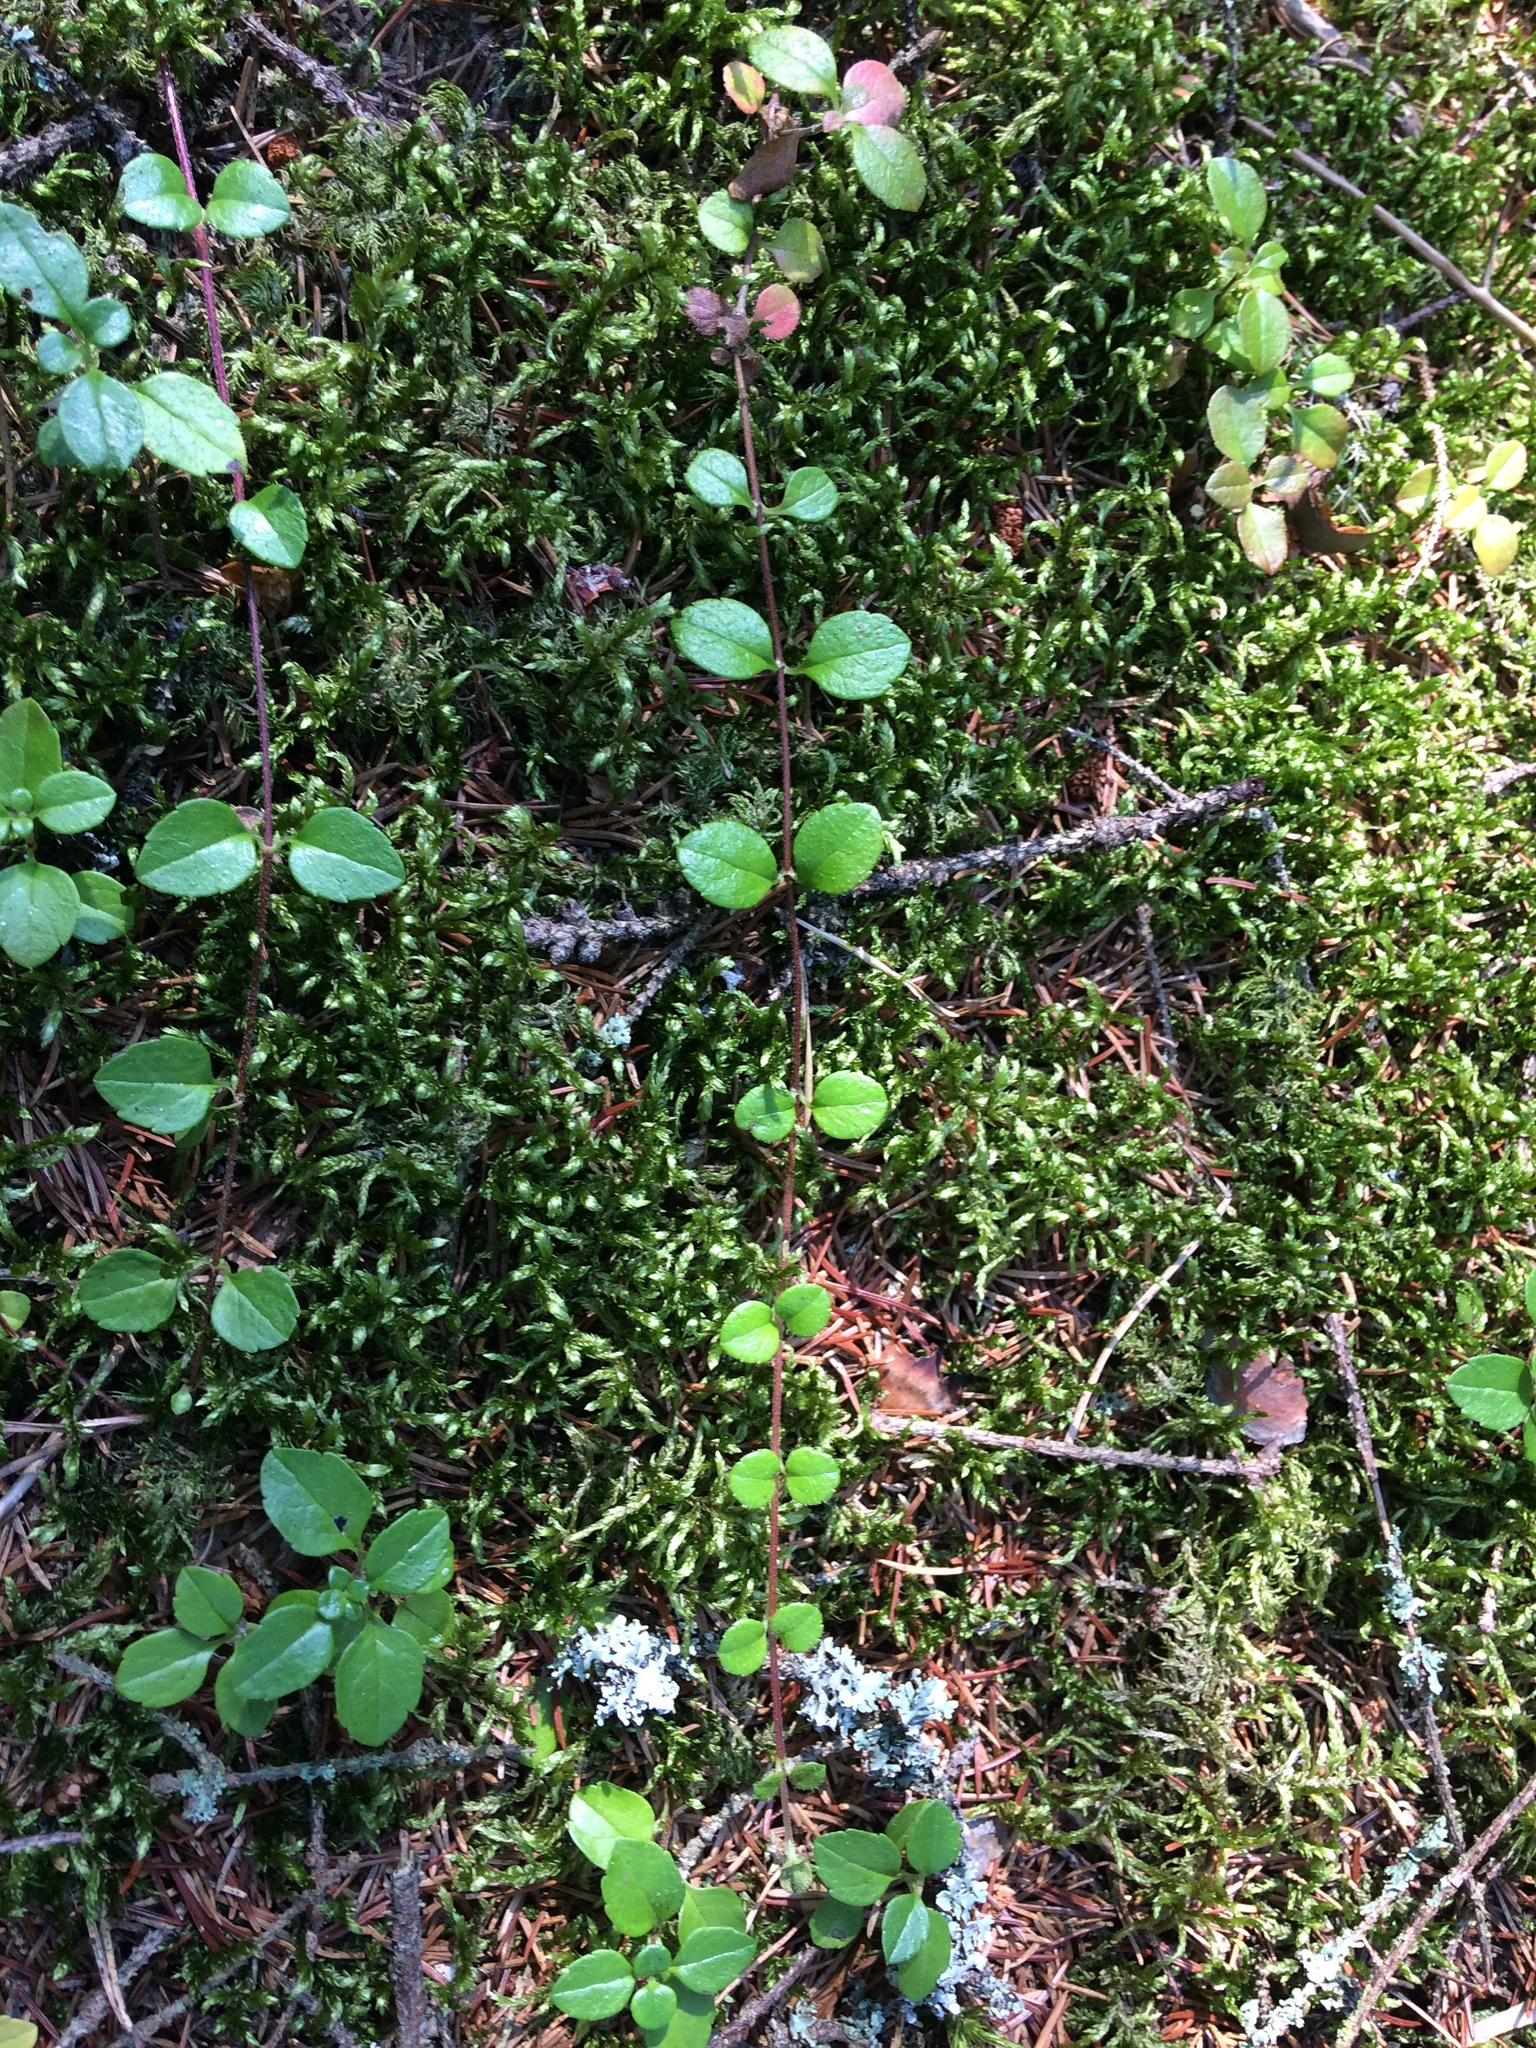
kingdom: Plantae
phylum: Tracheophyta
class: Magnoliopsida
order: Dipsacales
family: Caprifoliaceae
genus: Linnaea
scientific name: Linnaea borealis
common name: Twinflower
